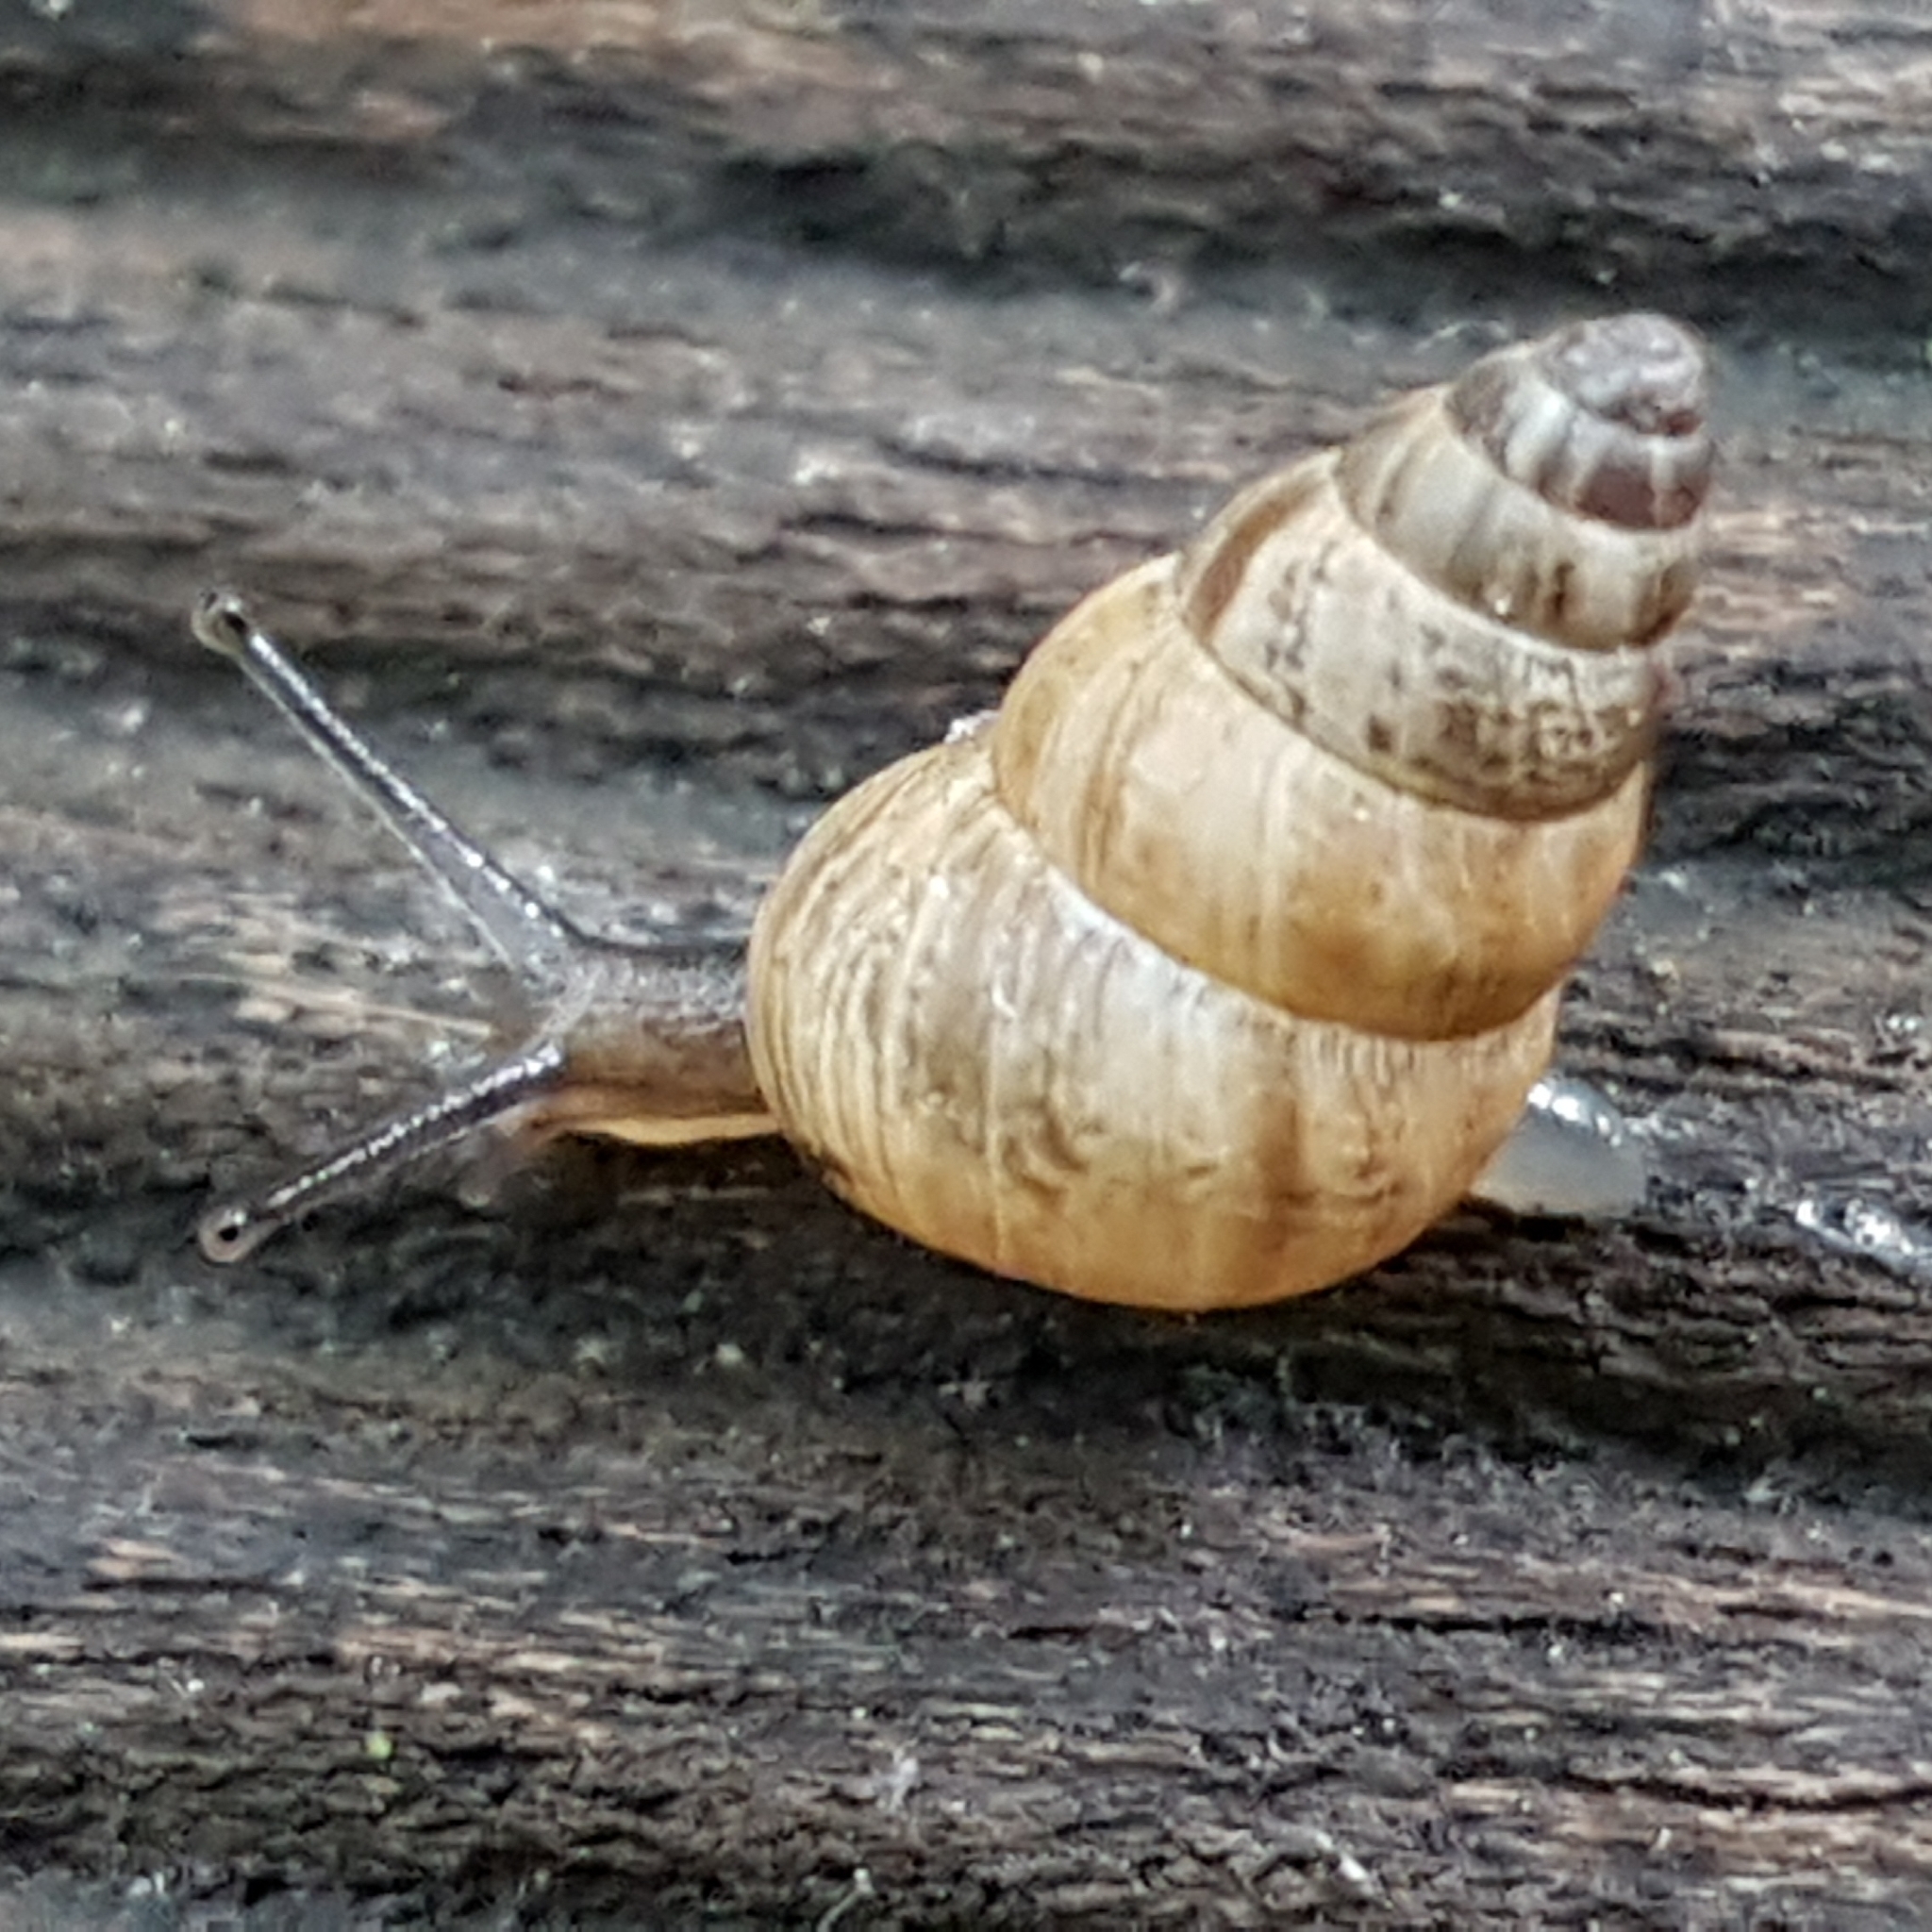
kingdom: Animalia
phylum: Mollusca
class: Gastropoda
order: Stylommatophora
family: Geomitridae
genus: Cochlicella
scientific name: Cochlicella barbara
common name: Potbellied helicellid
